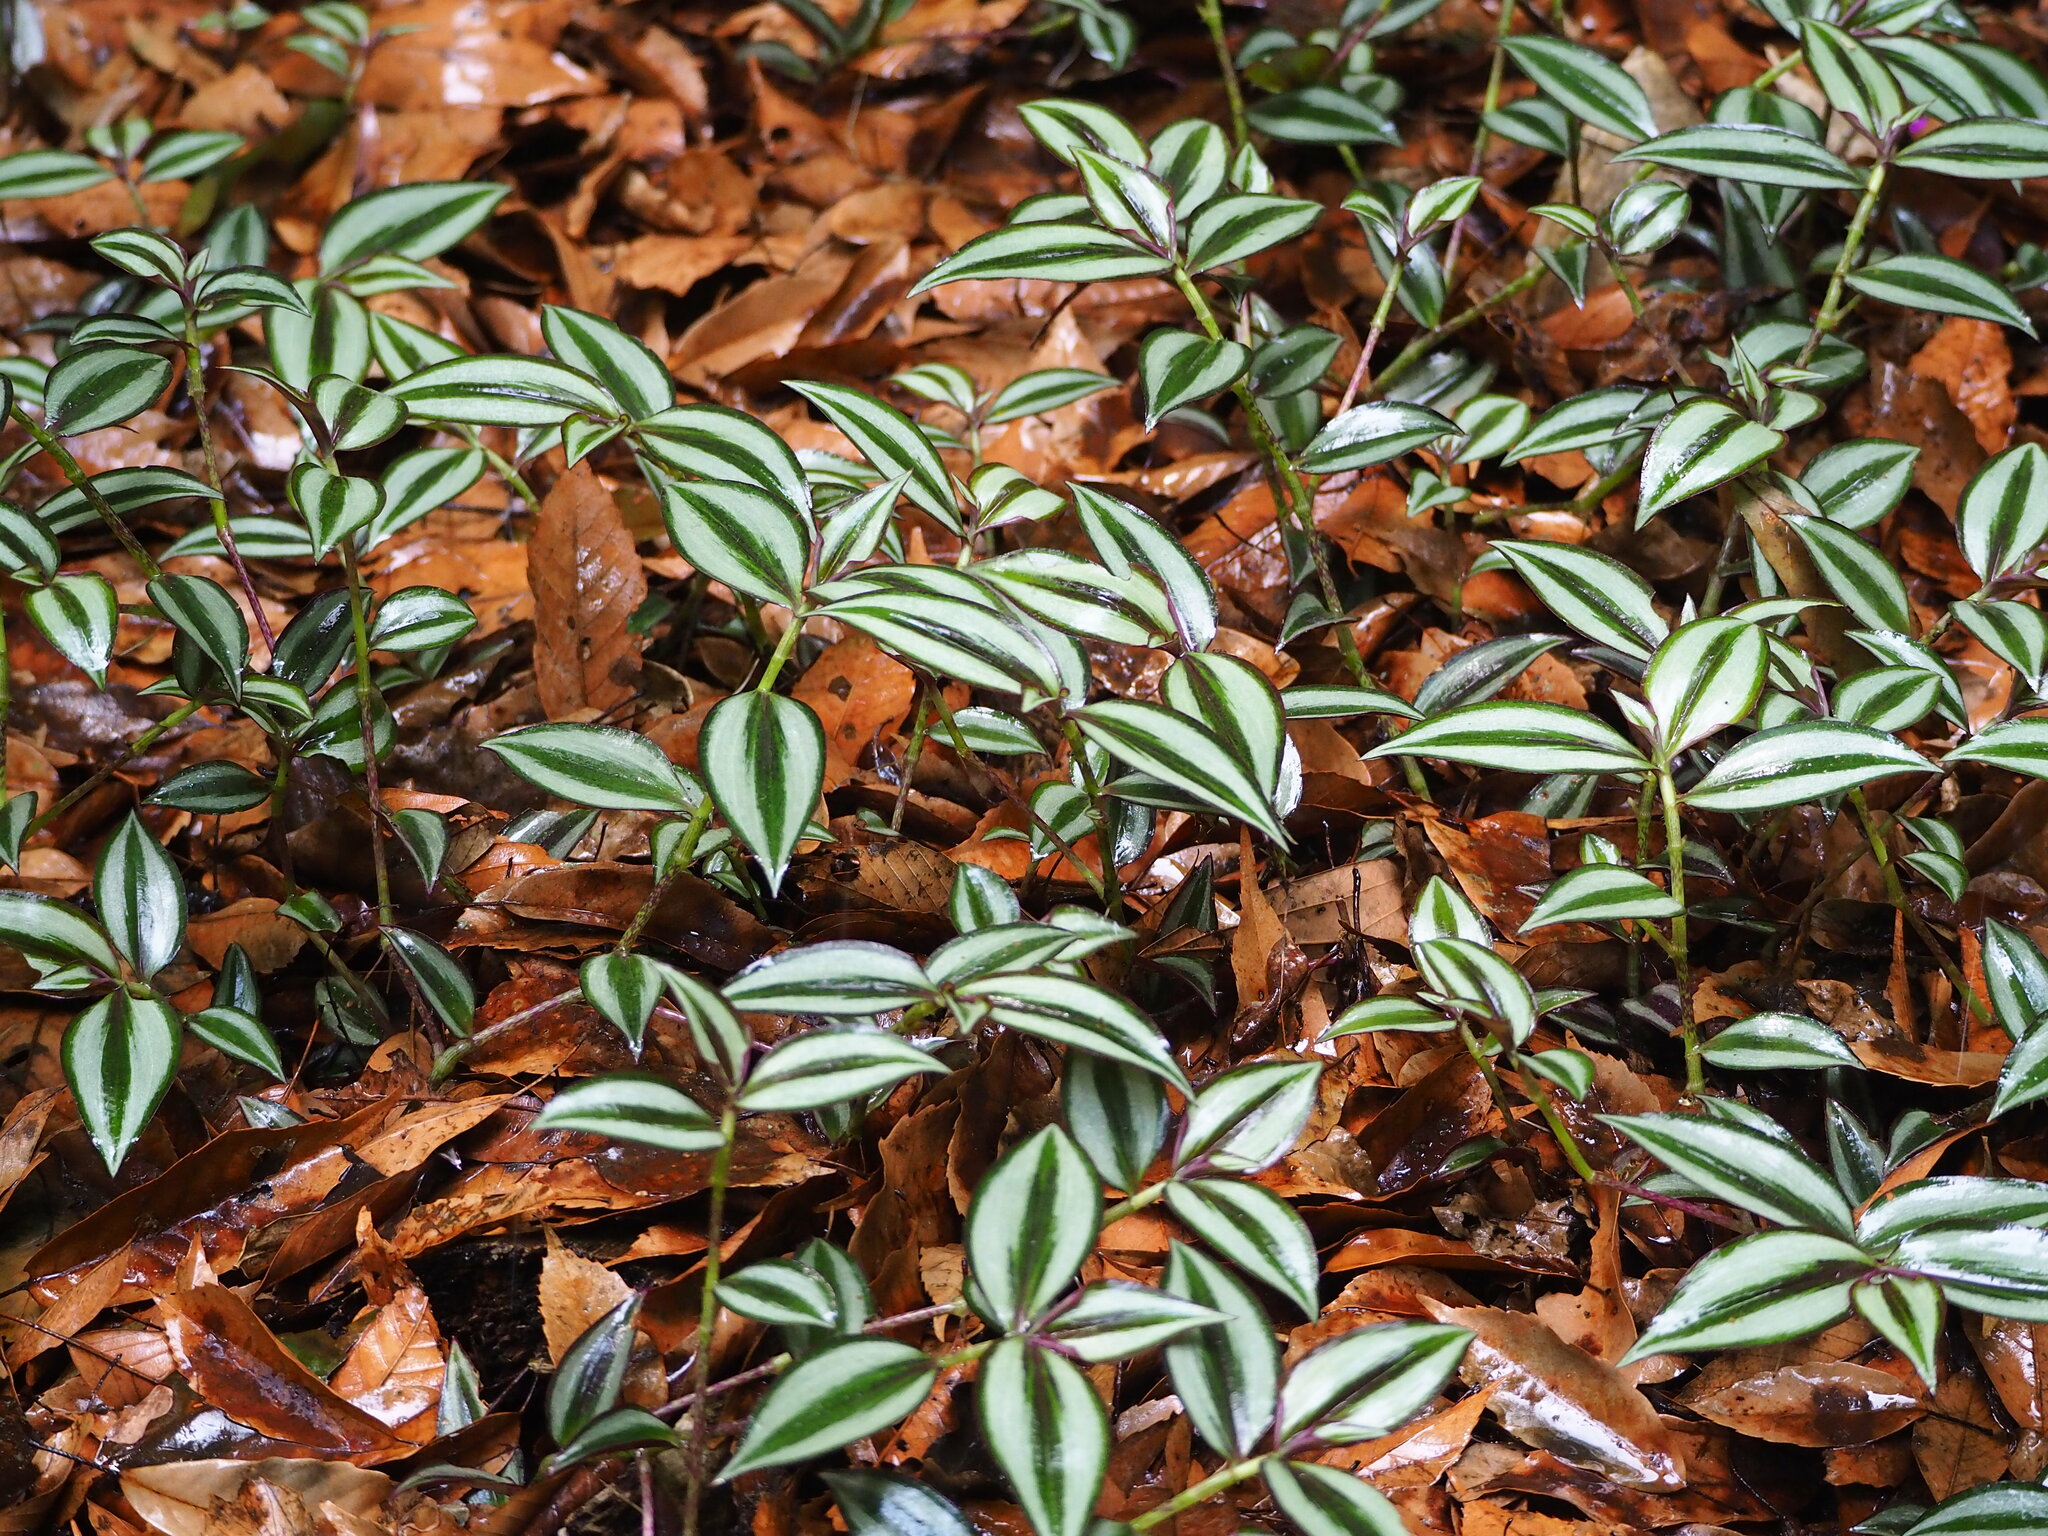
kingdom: Plantae
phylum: Tracheophyta
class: Liliopsida
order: Commelinales
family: Commelinaceae
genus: Tradescantia
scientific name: Tradescantia zebrina
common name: Inchplant
